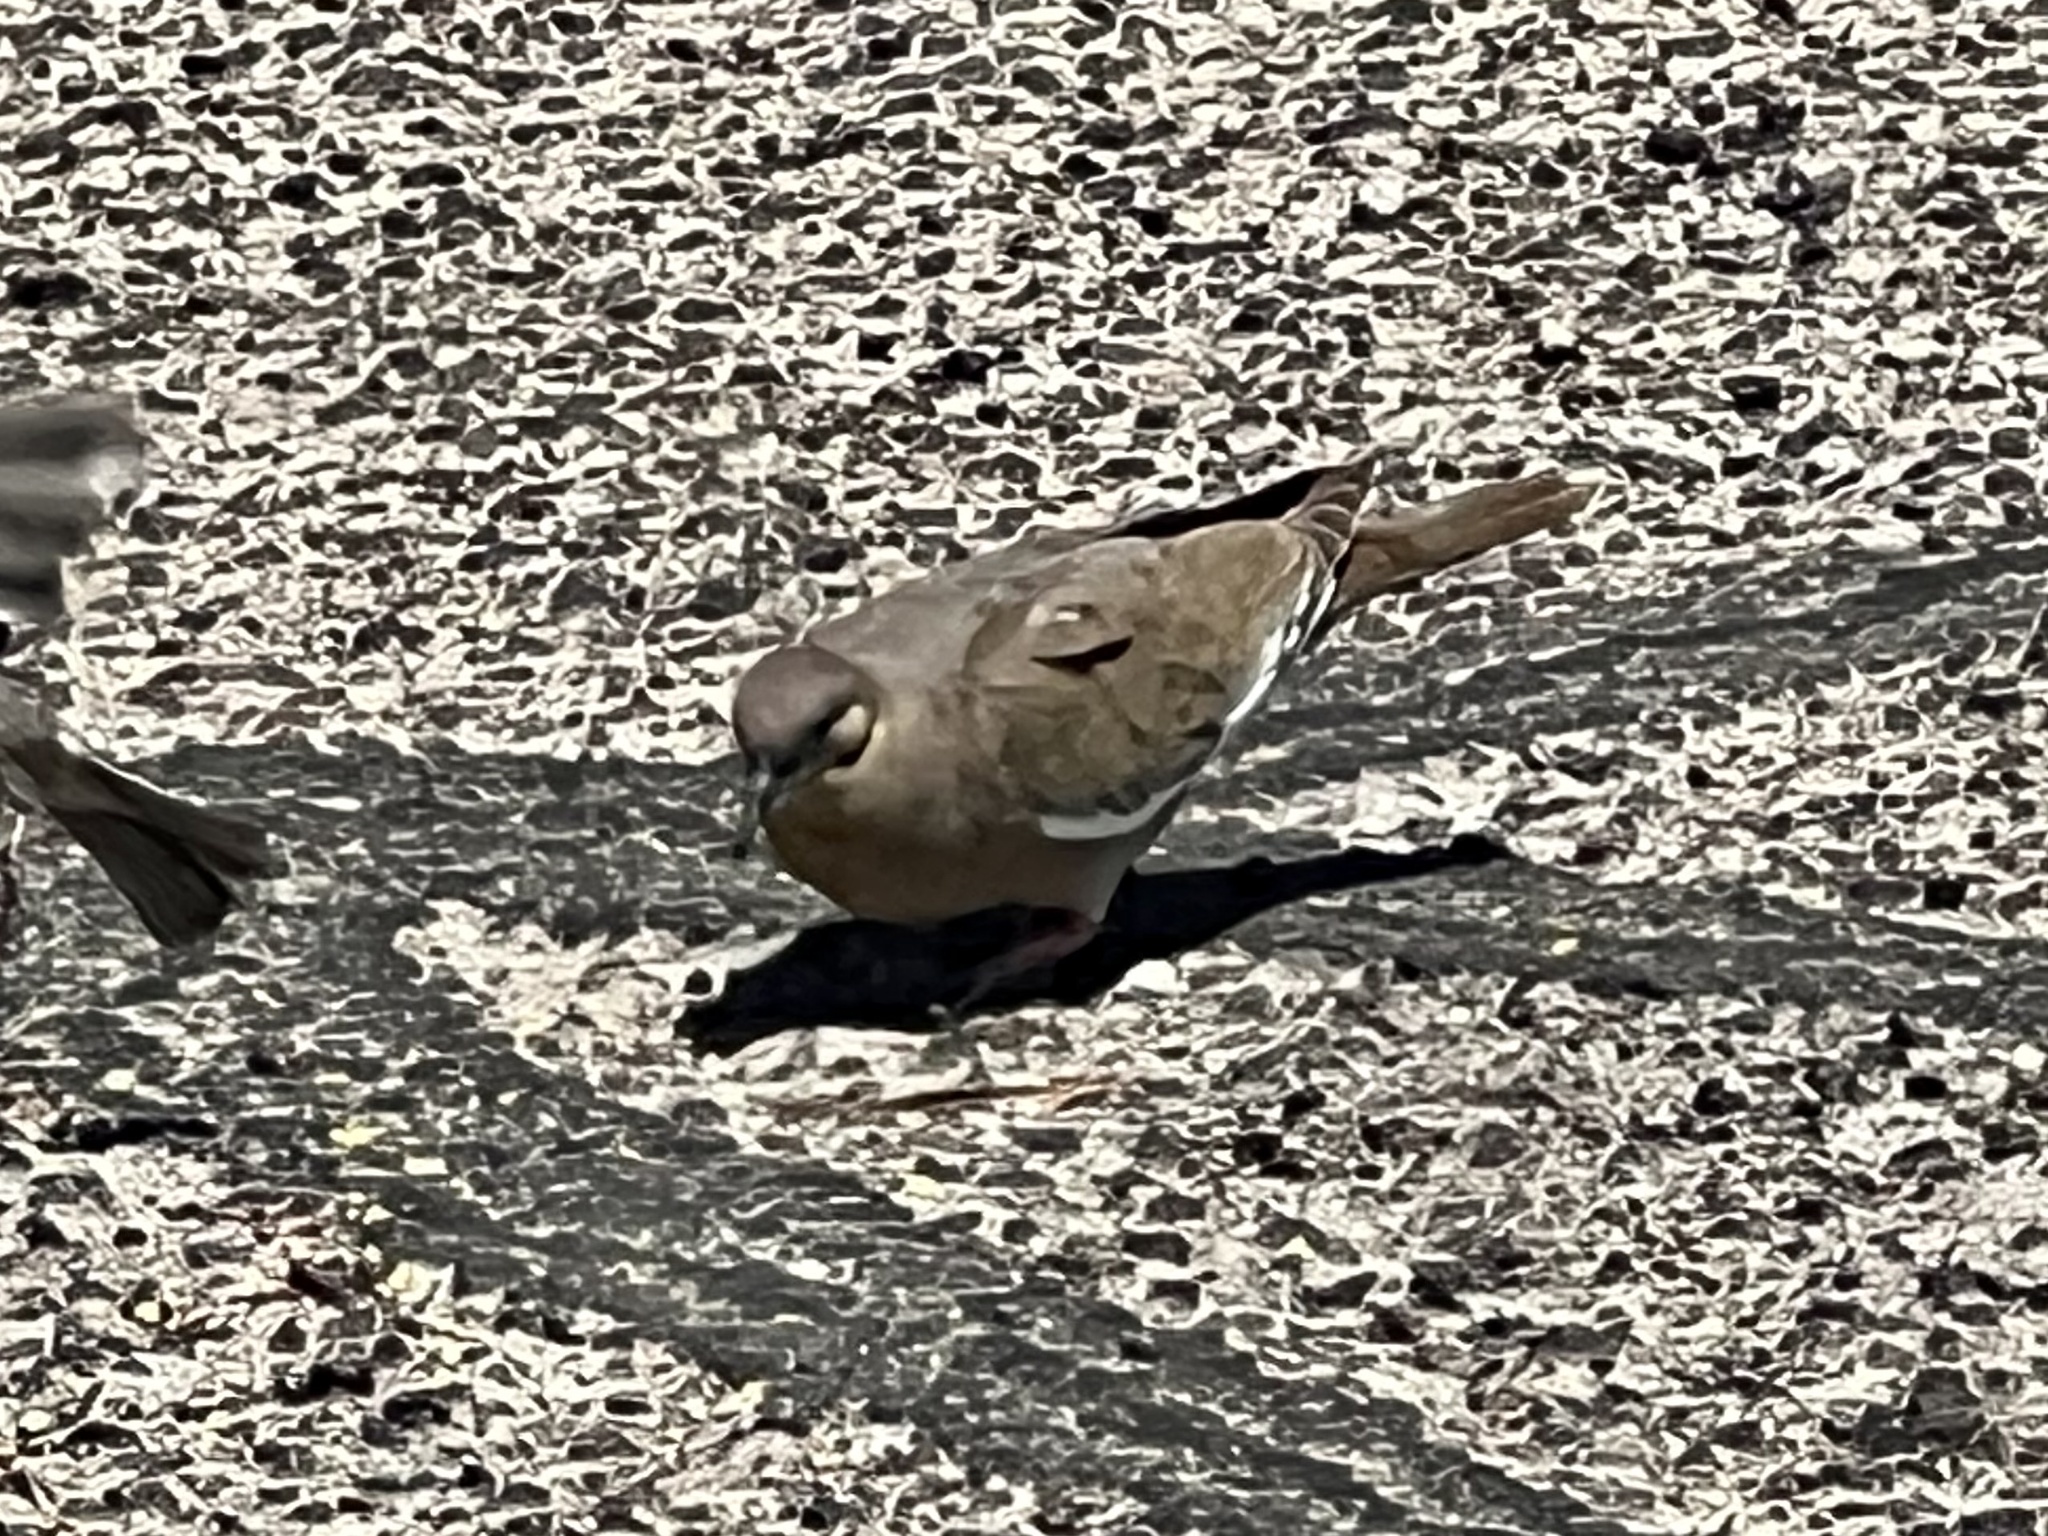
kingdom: Animalia
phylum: Chordata
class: Aves
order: Columbiformes
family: Columbidae
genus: Zenaida
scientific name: Zenaida asiatica
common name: White-winged dove
